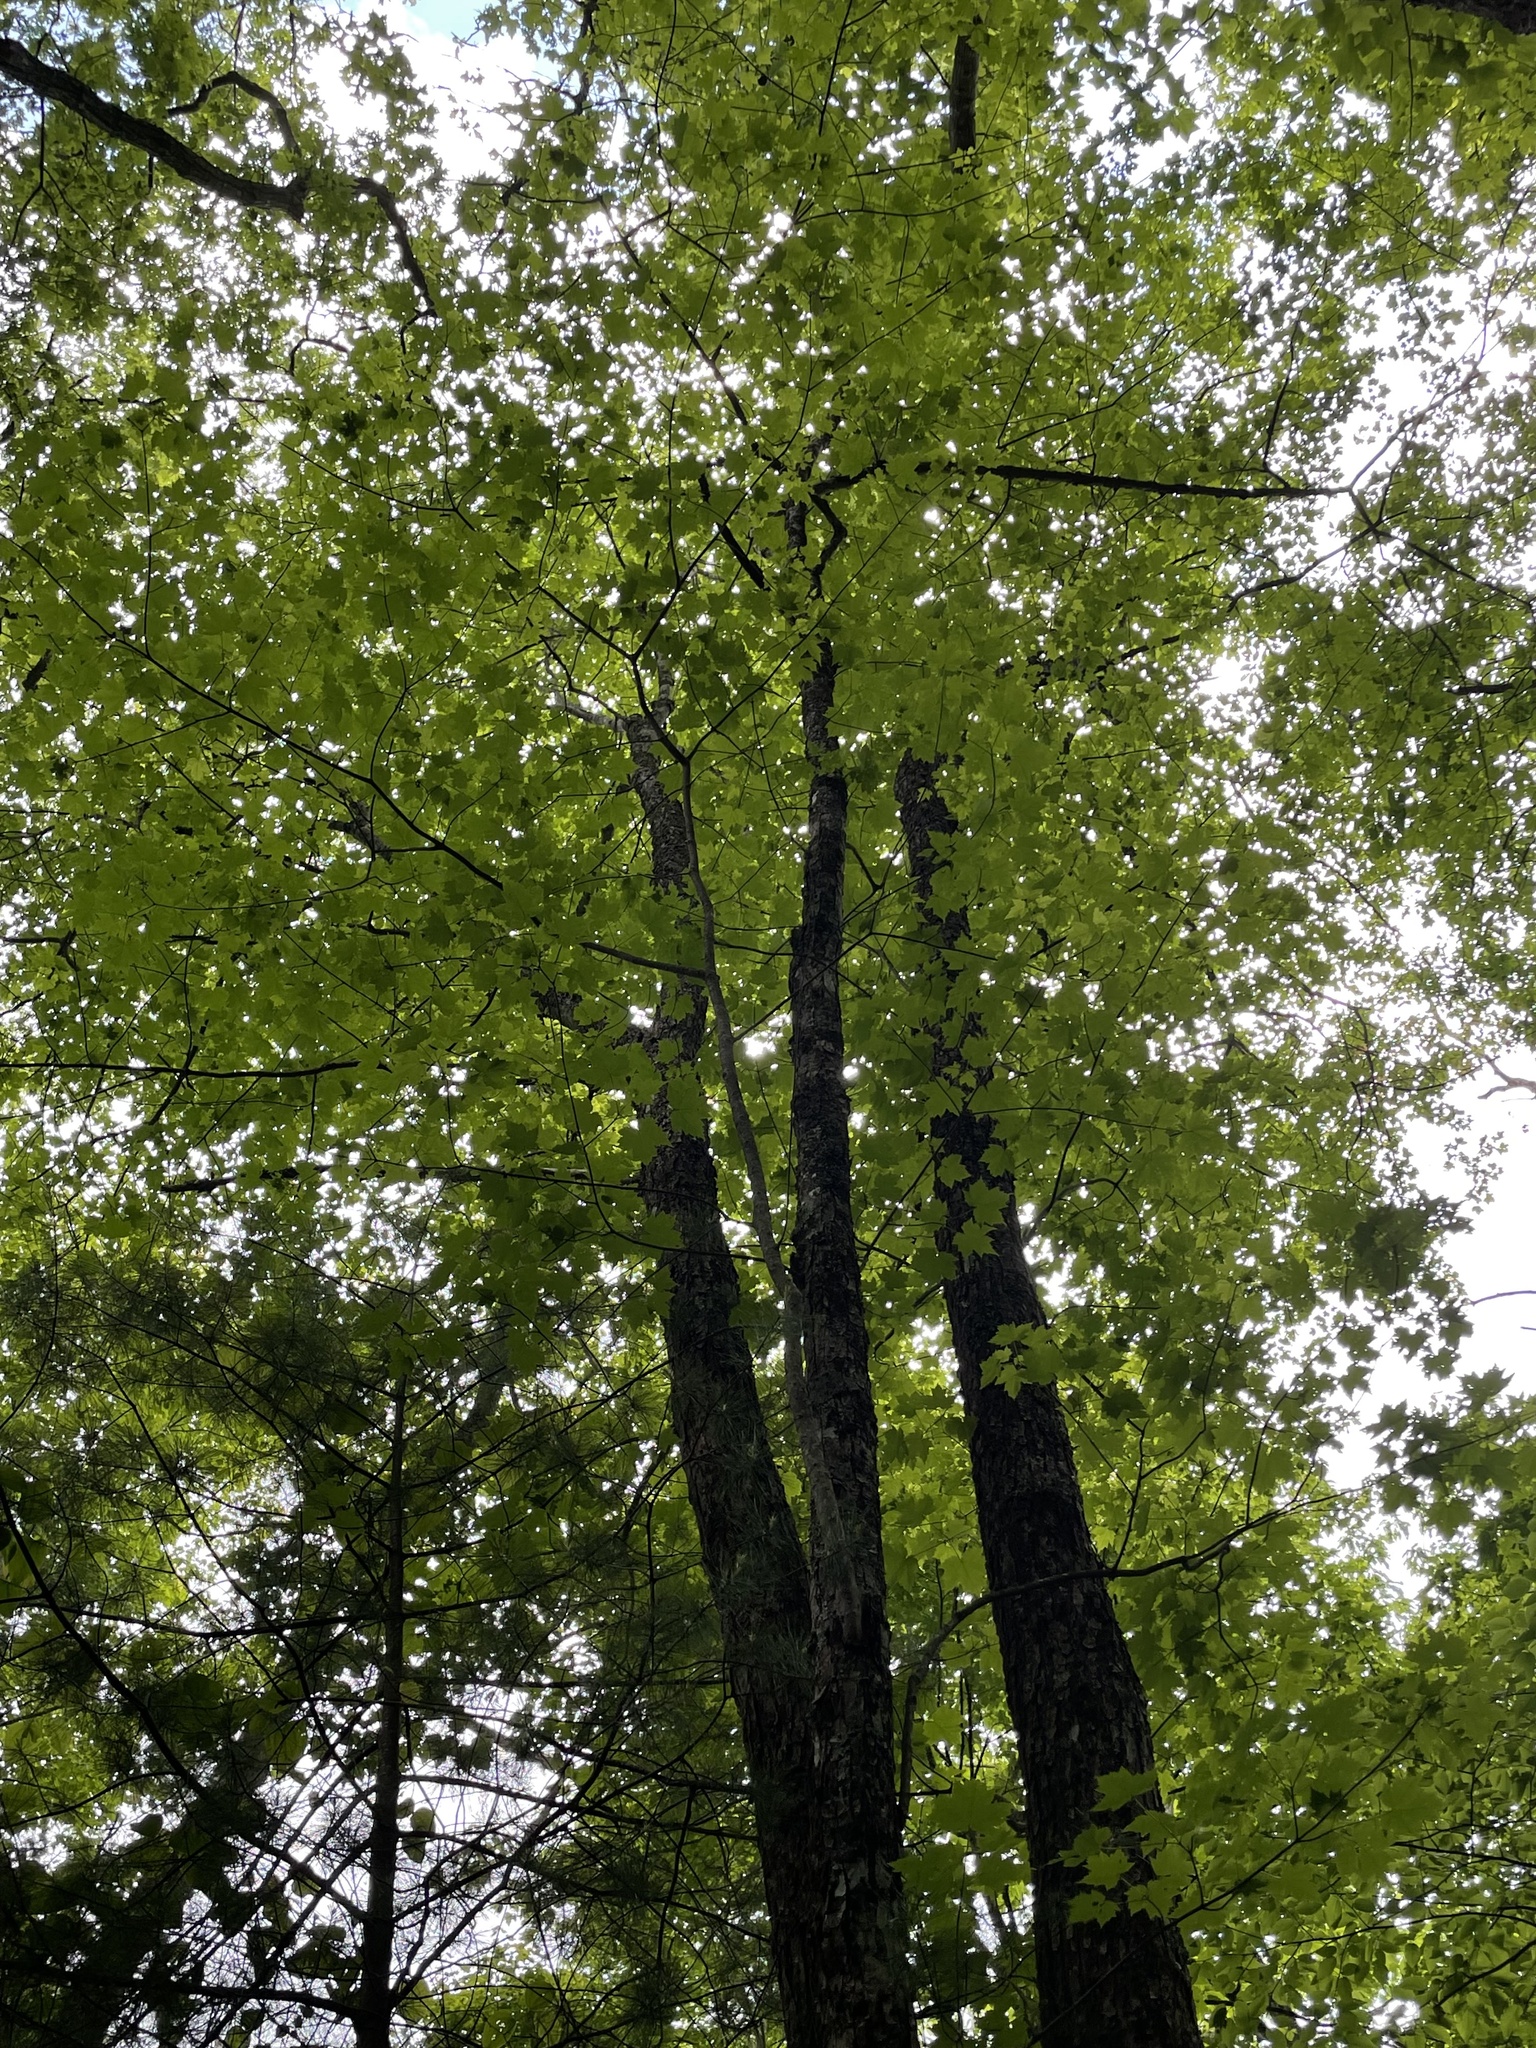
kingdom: Plantae
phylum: Tracheophyta
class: Magnoliopsida
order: Sapindales
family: Sapindaceae
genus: Acer
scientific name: Acer rubrum
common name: Red maple
